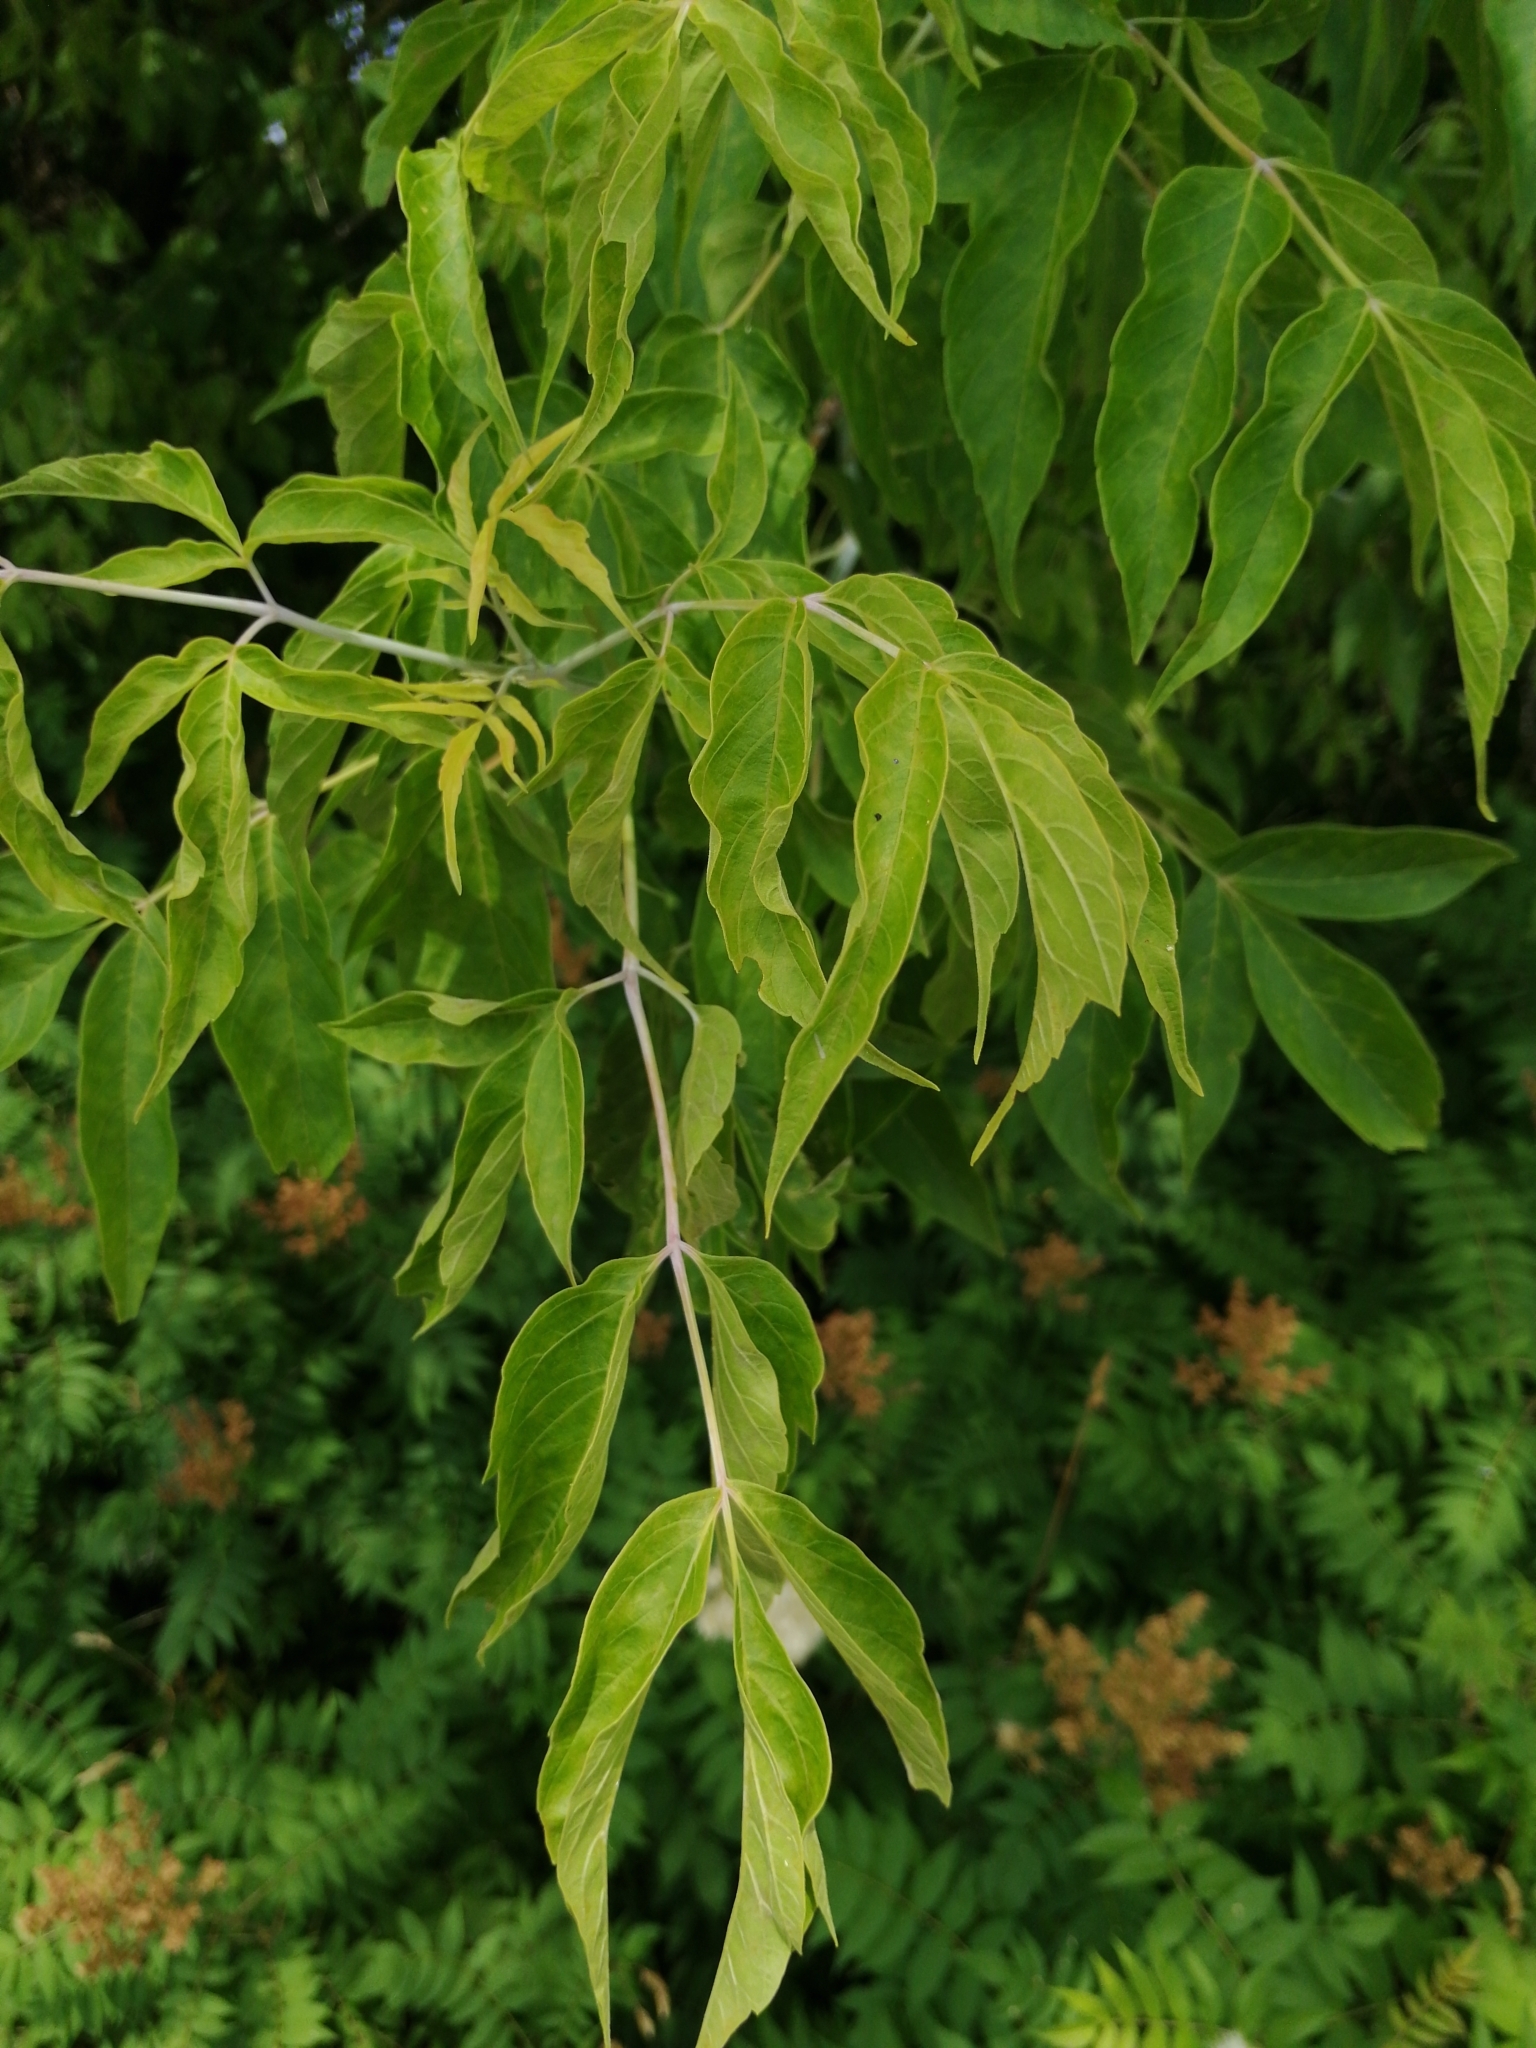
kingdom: Plantae
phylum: Tracheophyta
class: Magnoliopsida
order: Sapindales
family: Sapindaceae
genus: Acer
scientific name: Acer negundo
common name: Ashleaf maple
